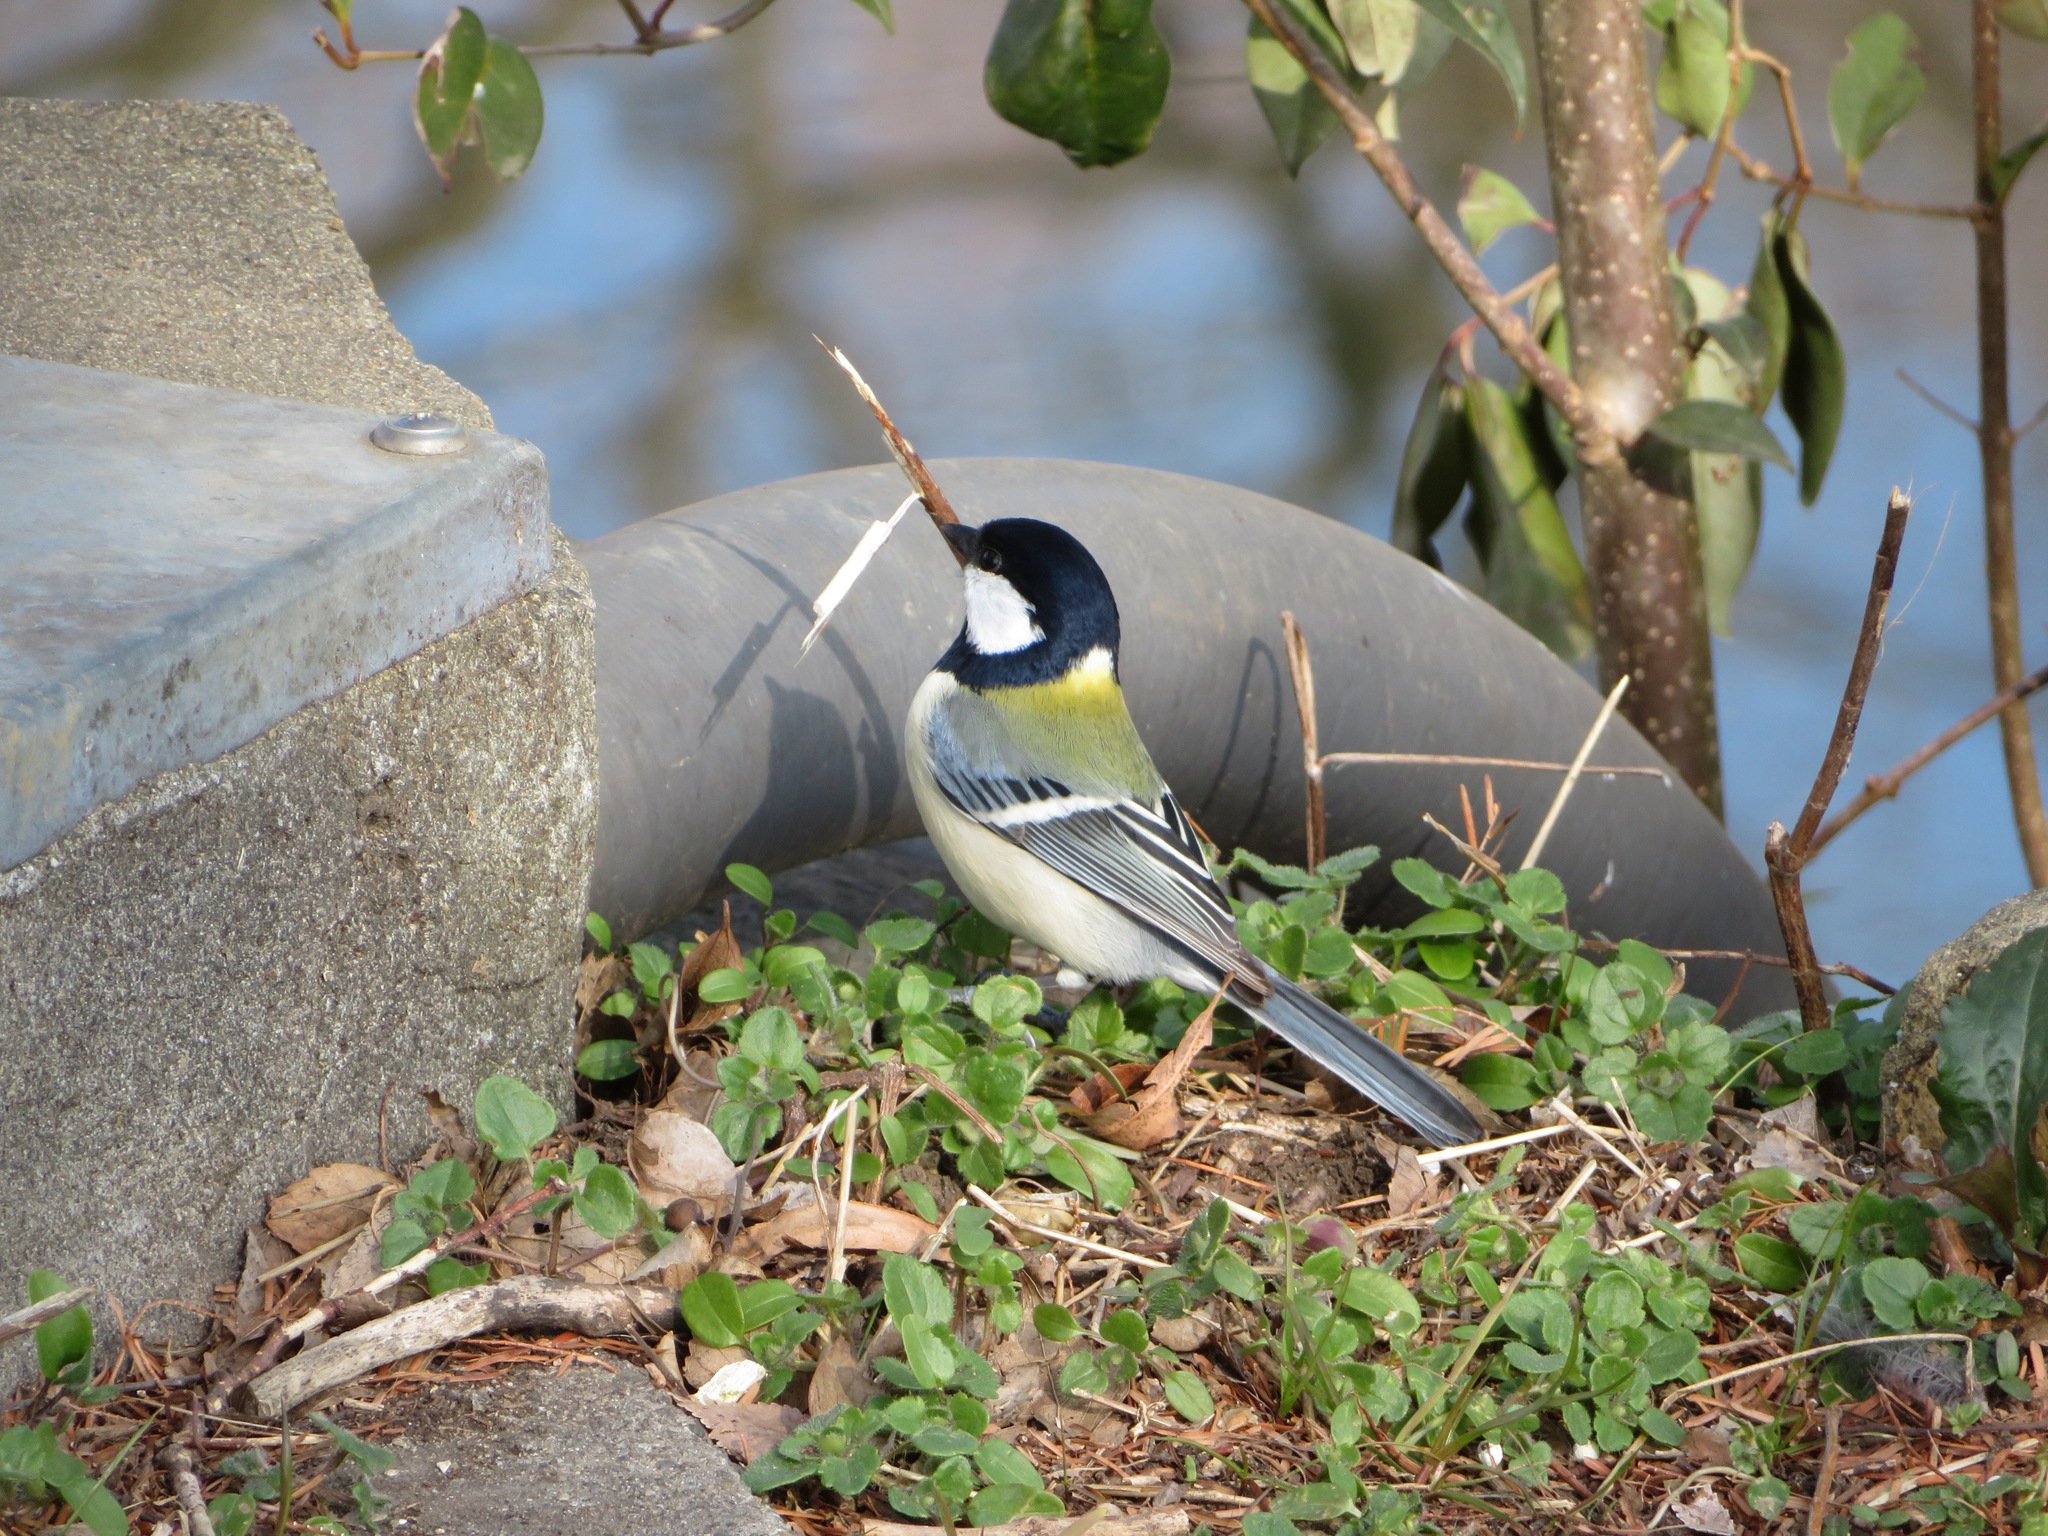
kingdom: Animalia
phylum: Chordata
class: Aves
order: Passeriformes
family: Paridae
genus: Parus
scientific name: Parus minor
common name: Japanese tit
